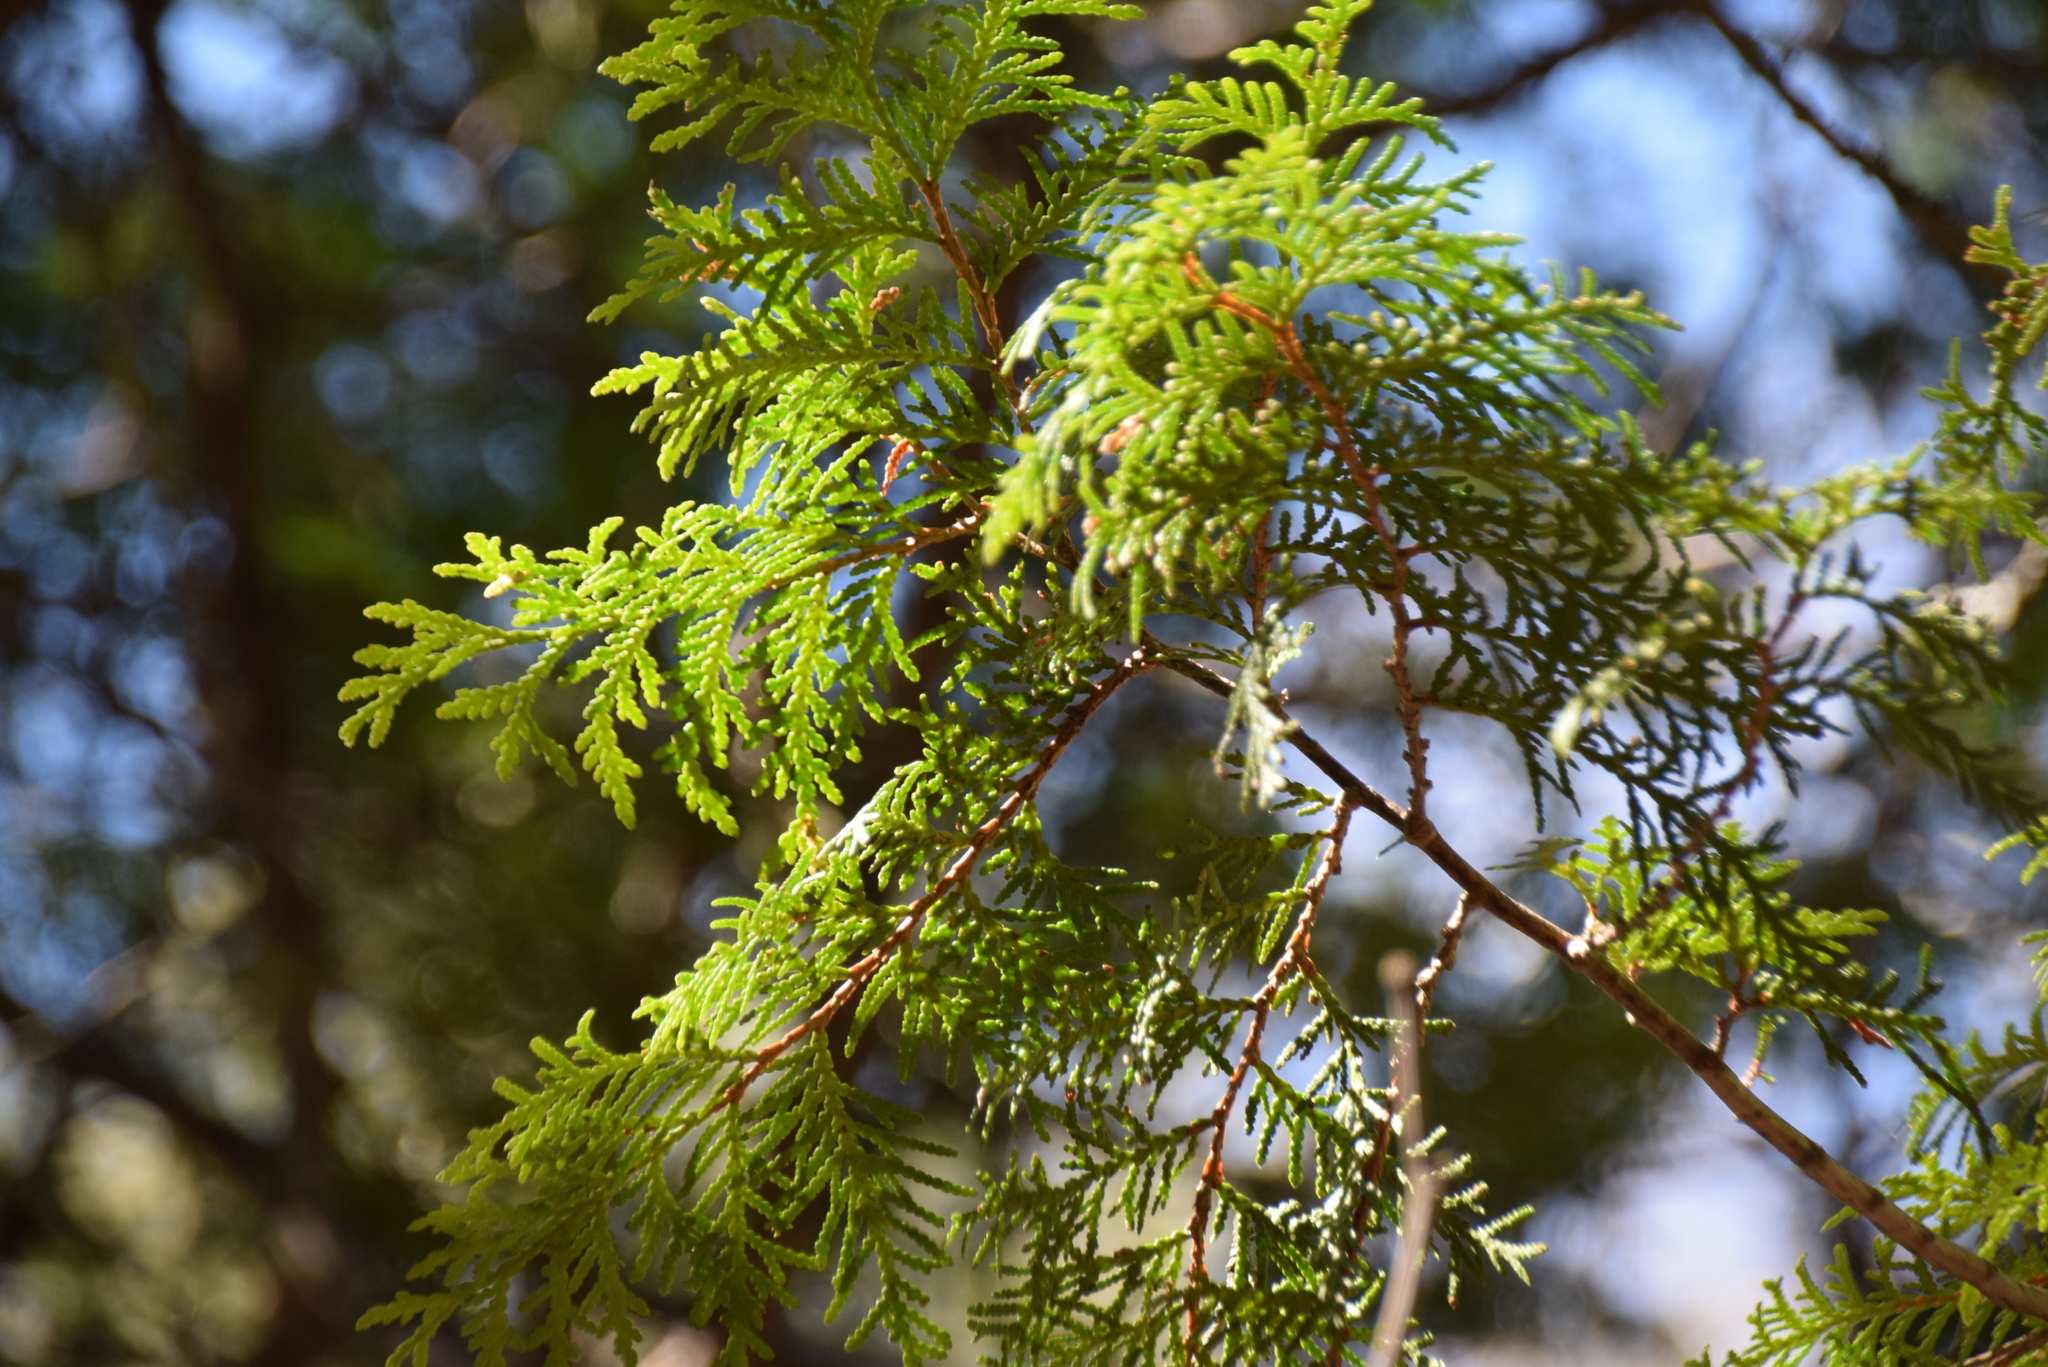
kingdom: Plantae
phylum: Tracheophyta
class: Pinopsida
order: Pinales
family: Cupressaceae
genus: Thuja
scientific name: Thuja occidentalis
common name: Northern white-cedar
